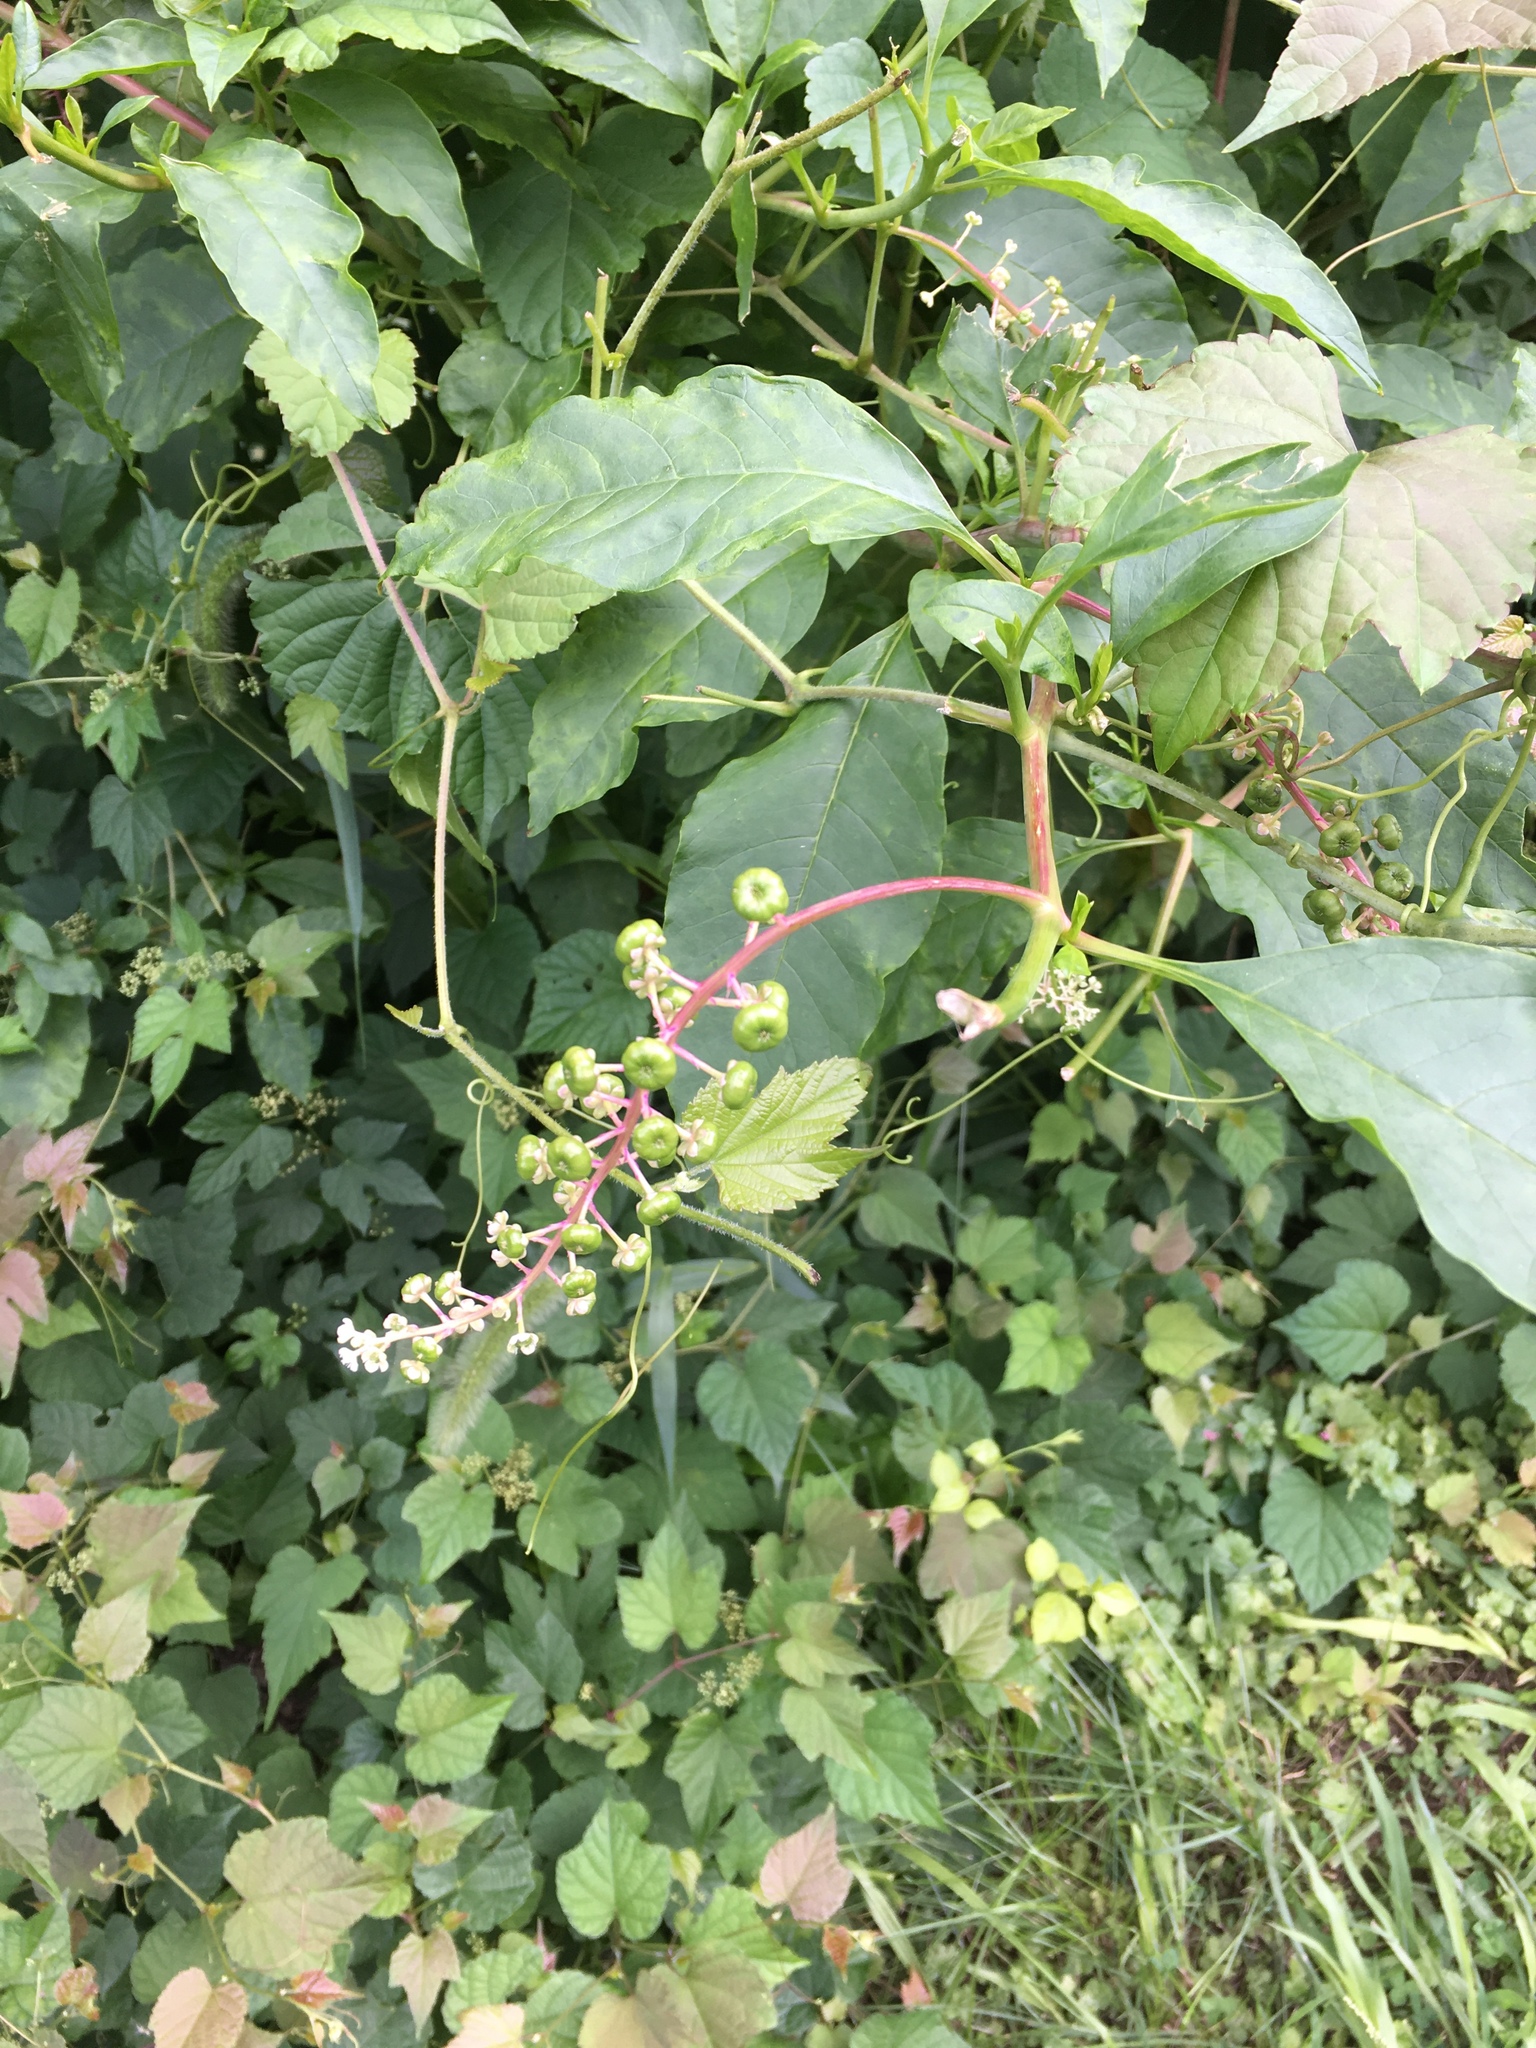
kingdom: Plantae
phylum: Tracheophyta
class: Magnoliopsida
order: Caryophyllales
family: Phytolaccaceae
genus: Phytolacca
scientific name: Phytolacca americana
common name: American pokeweed
